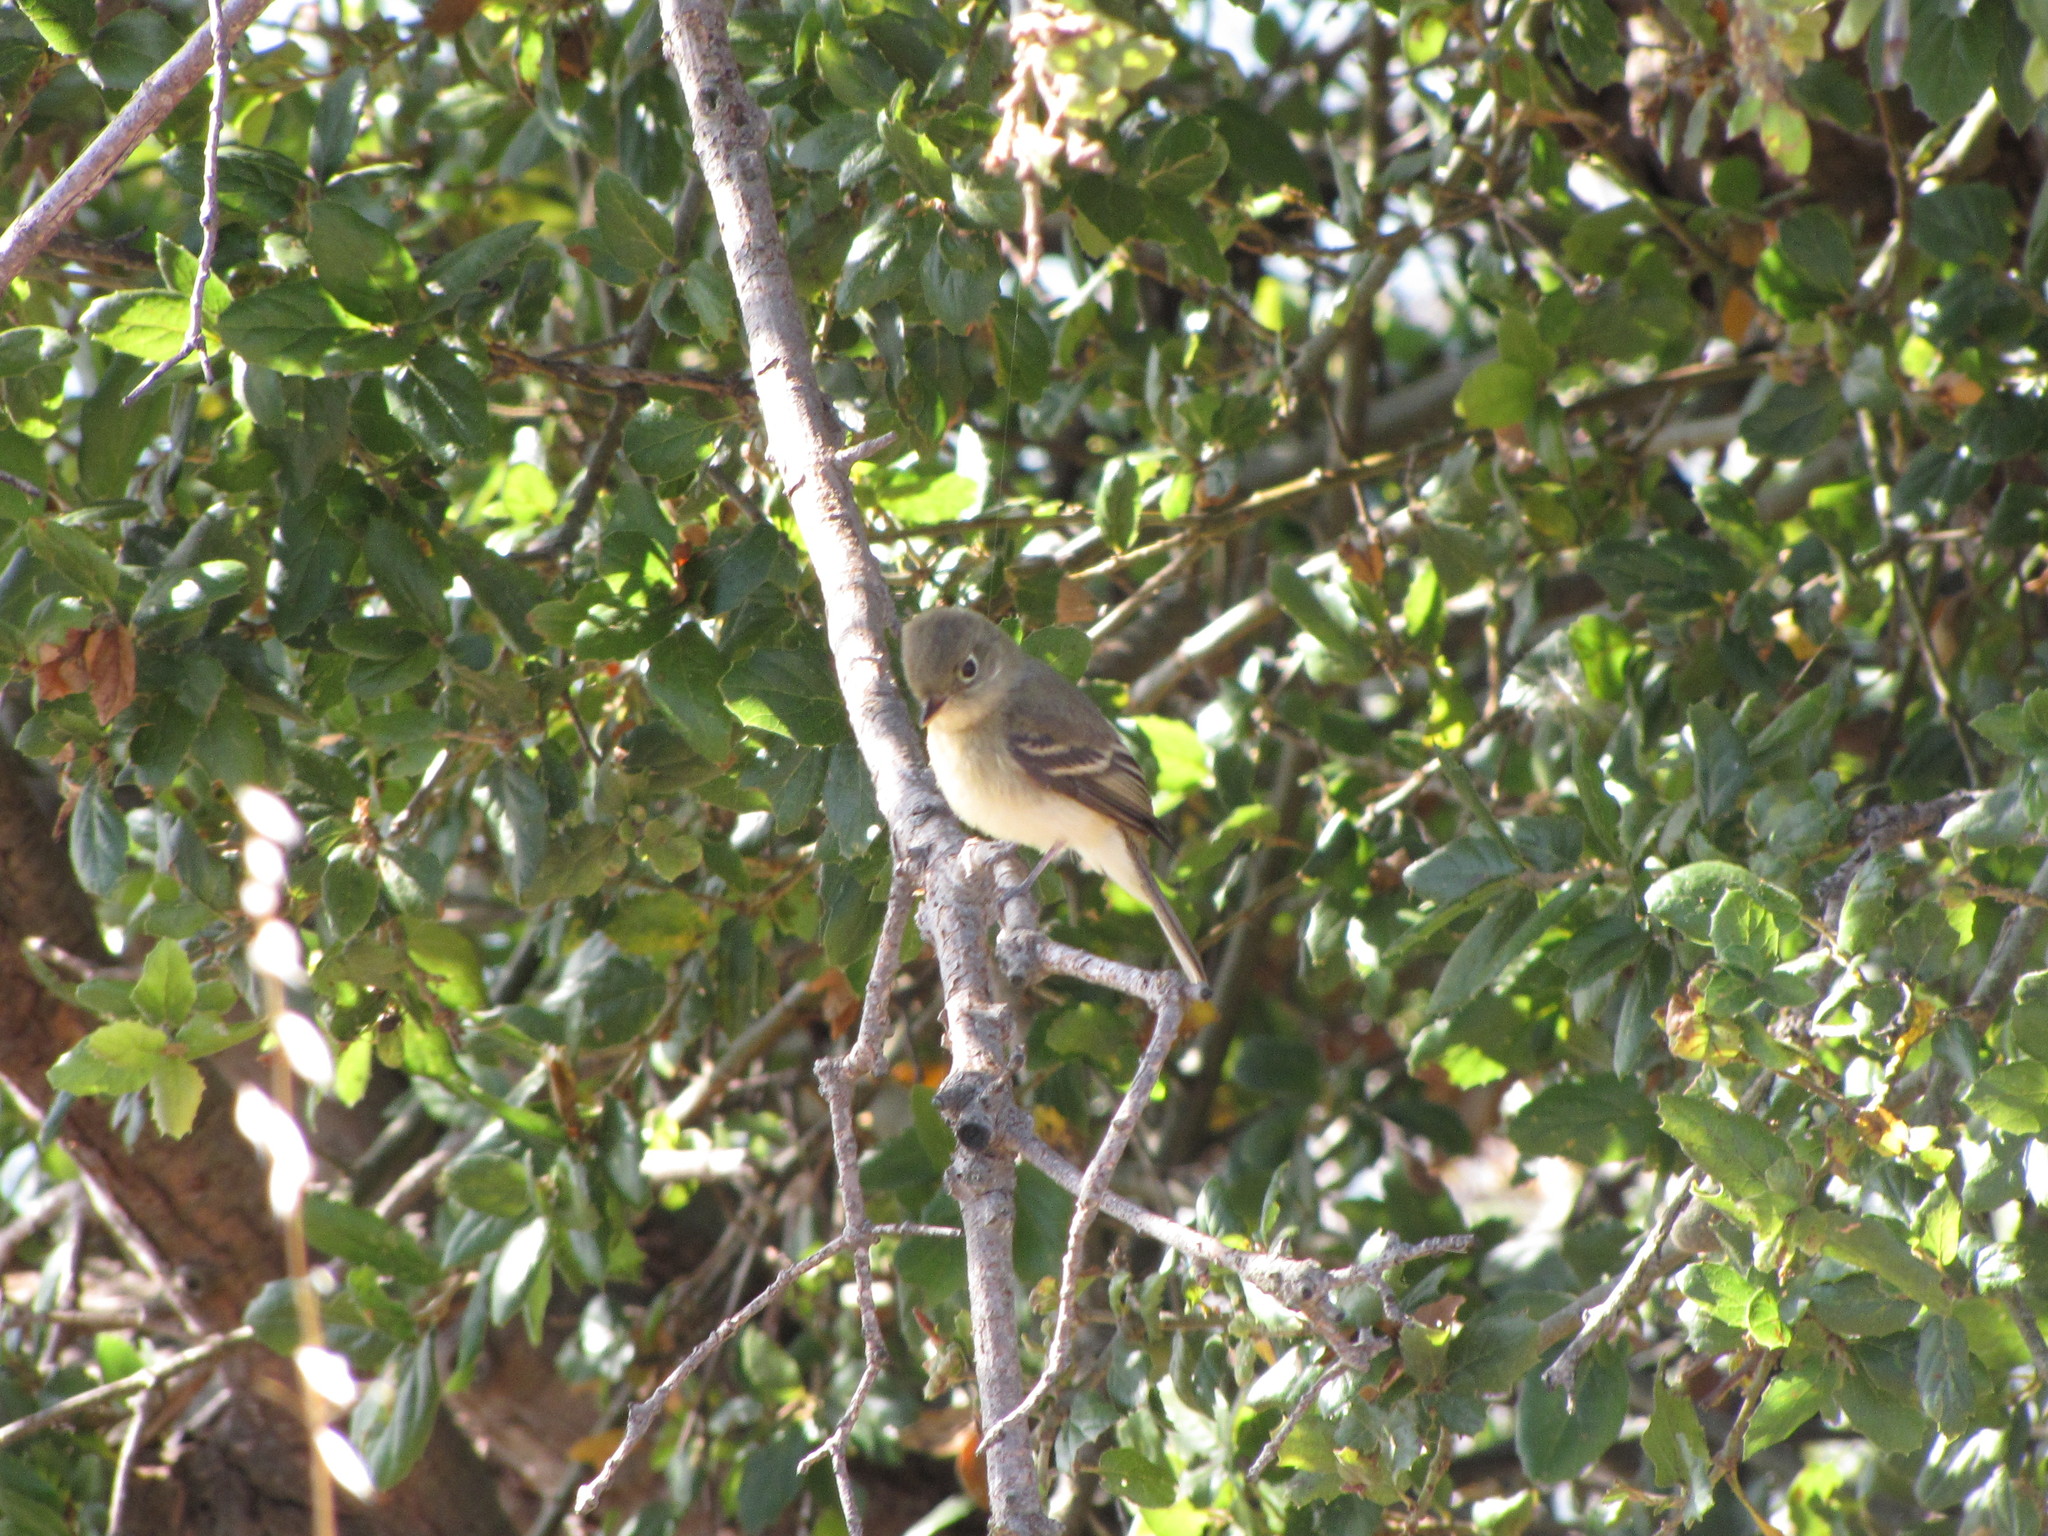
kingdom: Animalia
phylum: Chordata
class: Aves
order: Passeriformes
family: Tyrannidae
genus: Empidonax
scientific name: Empidonax difficilis
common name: Pacific-slope flycatcher
